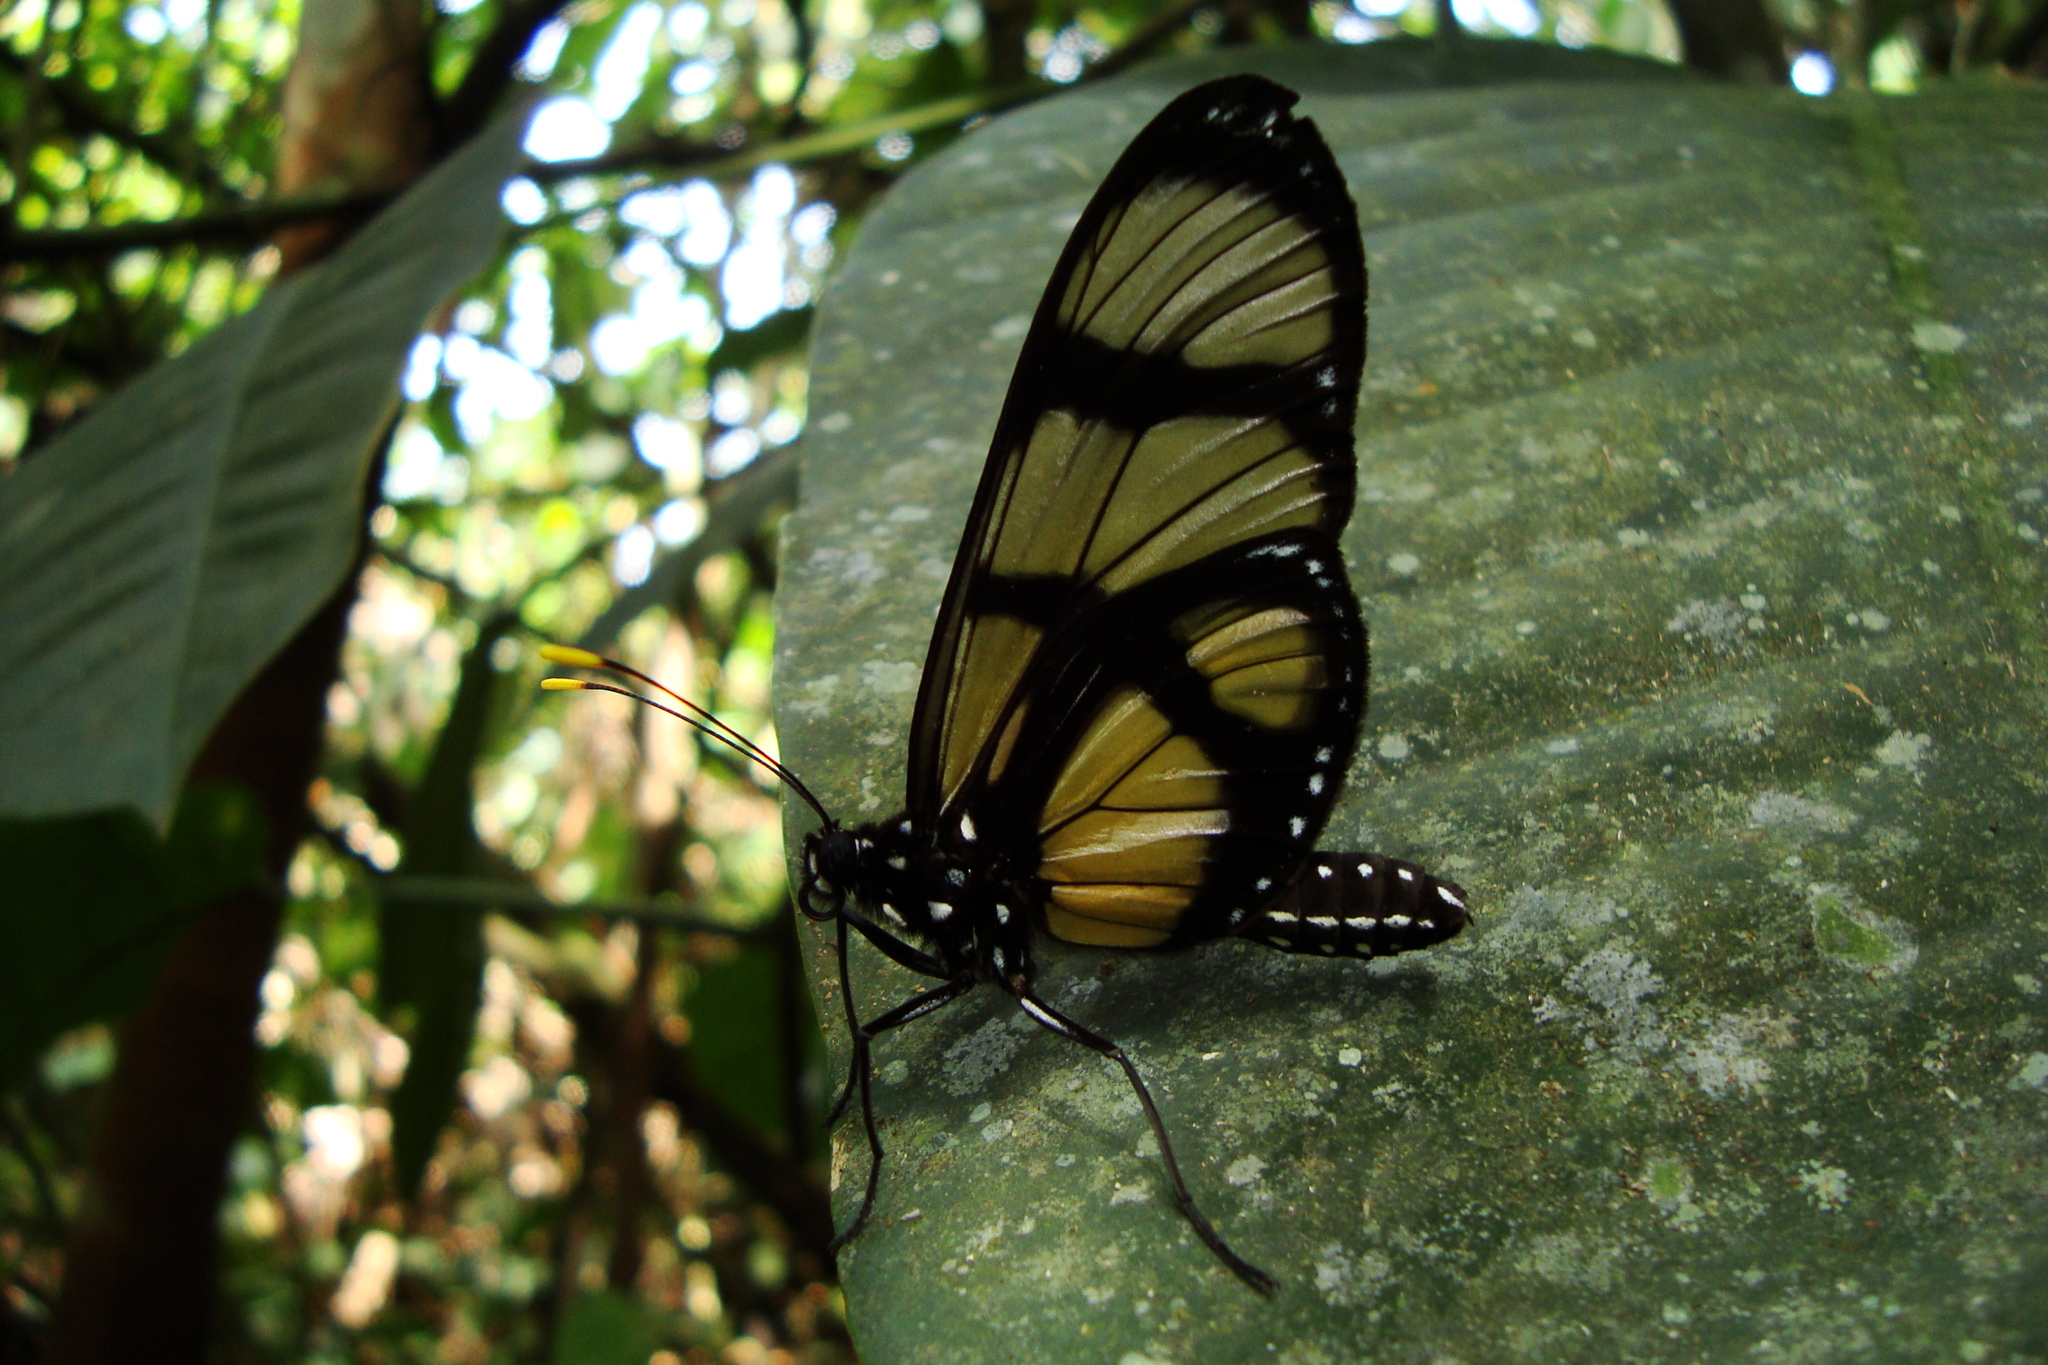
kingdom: Animalia
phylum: Arthropoda
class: Insecta
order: Lepidoptera
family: Nymphalidae
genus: Methona
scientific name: Methona confusa
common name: Confusa tigerwing
